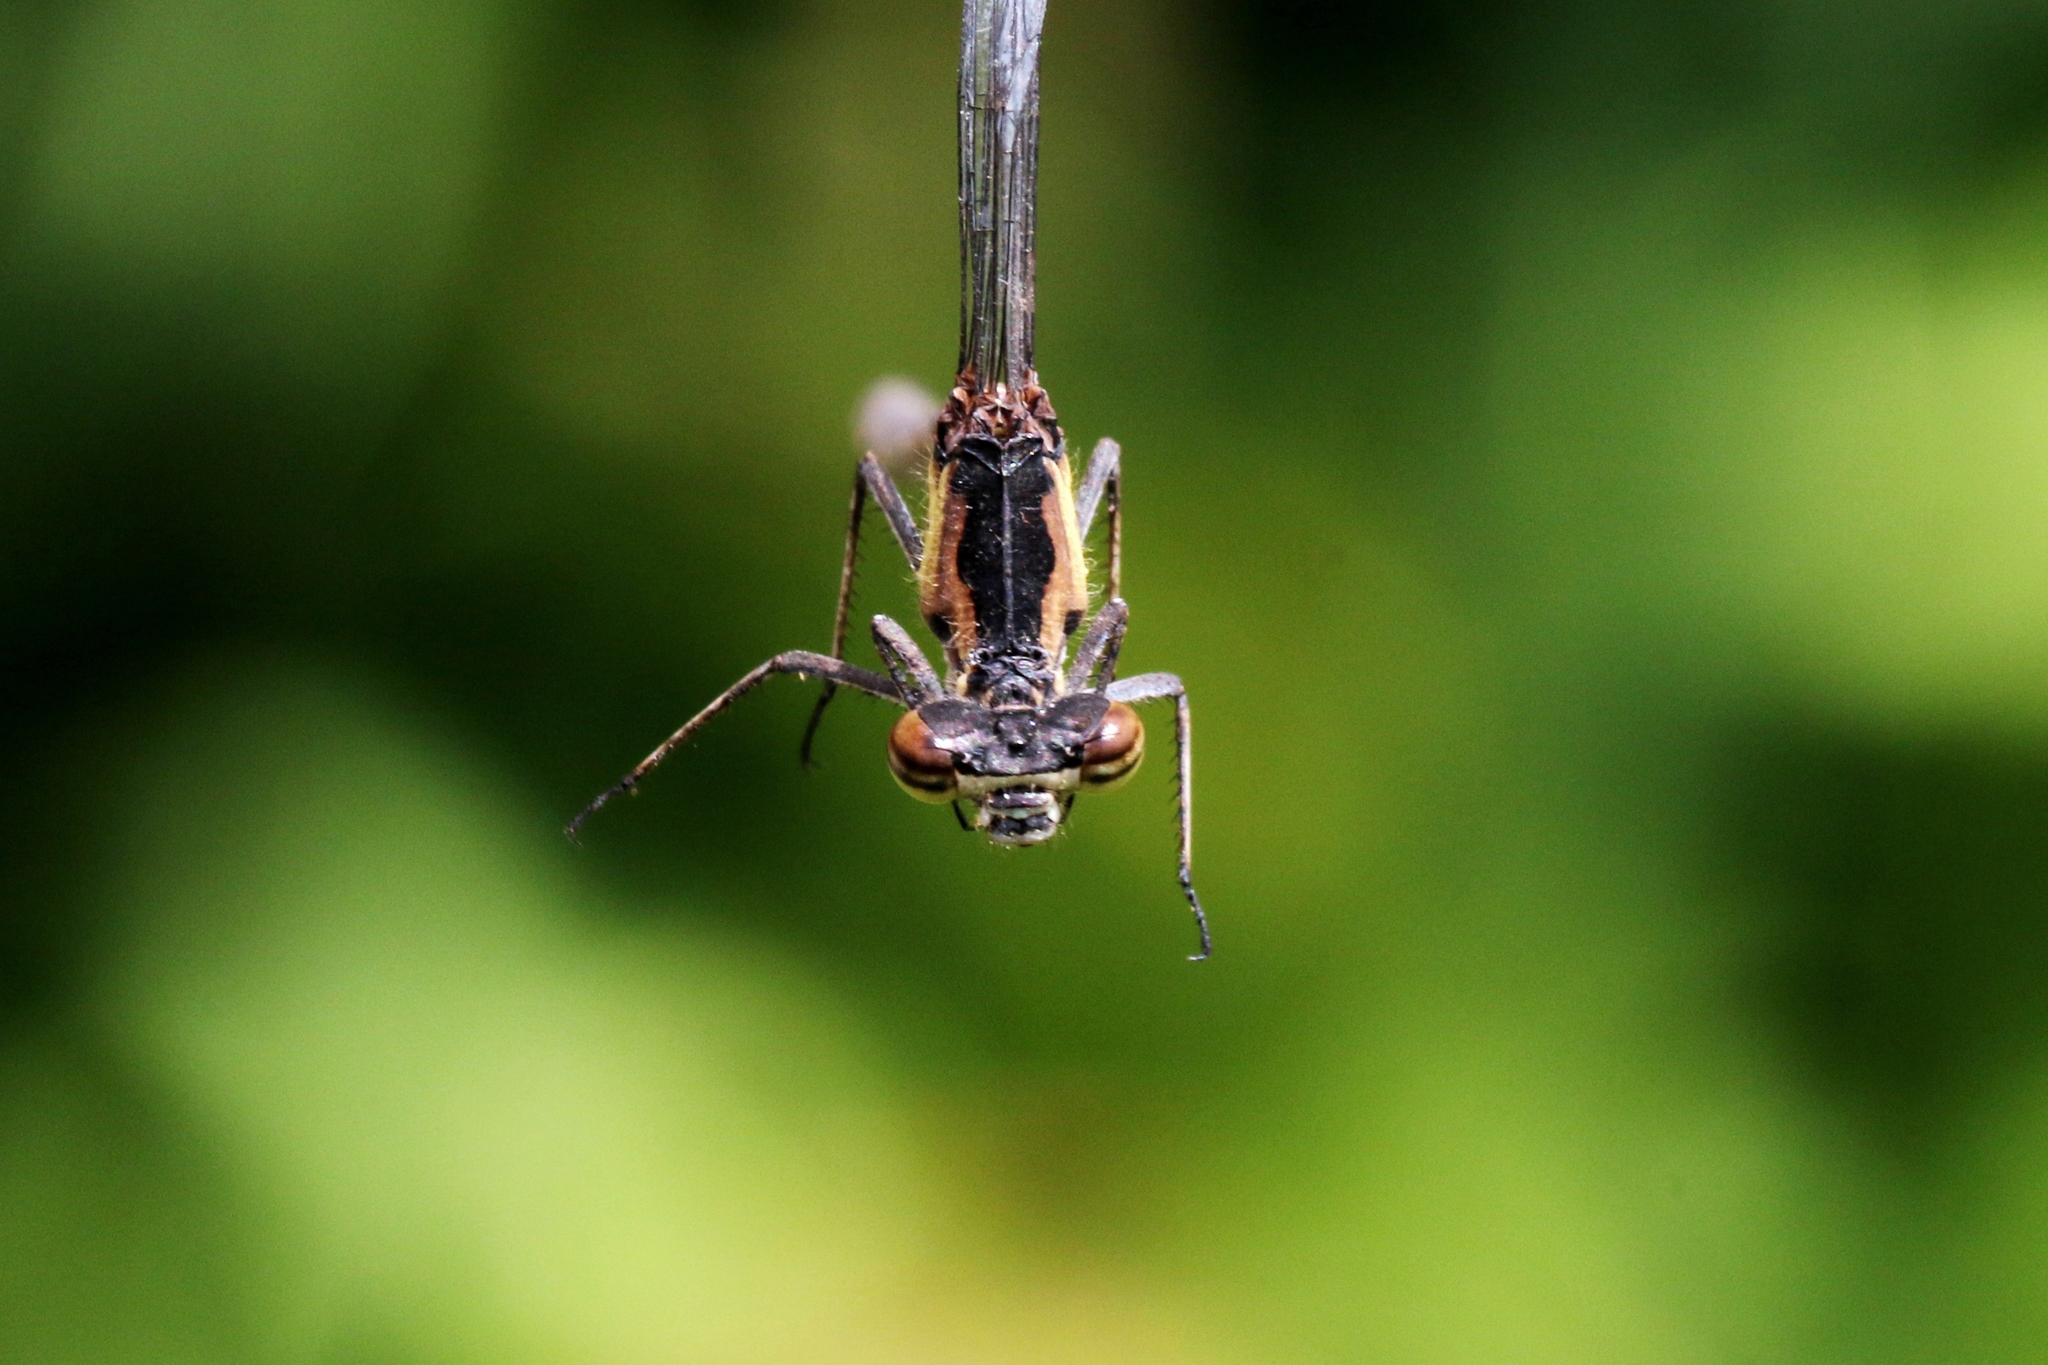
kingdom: Animalia
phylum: Arthropoda
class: Insecta
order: Odonata
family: Coenagrionidae
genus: Chromagrion
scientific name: Chromagrion conditum
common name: Aurora damsel
